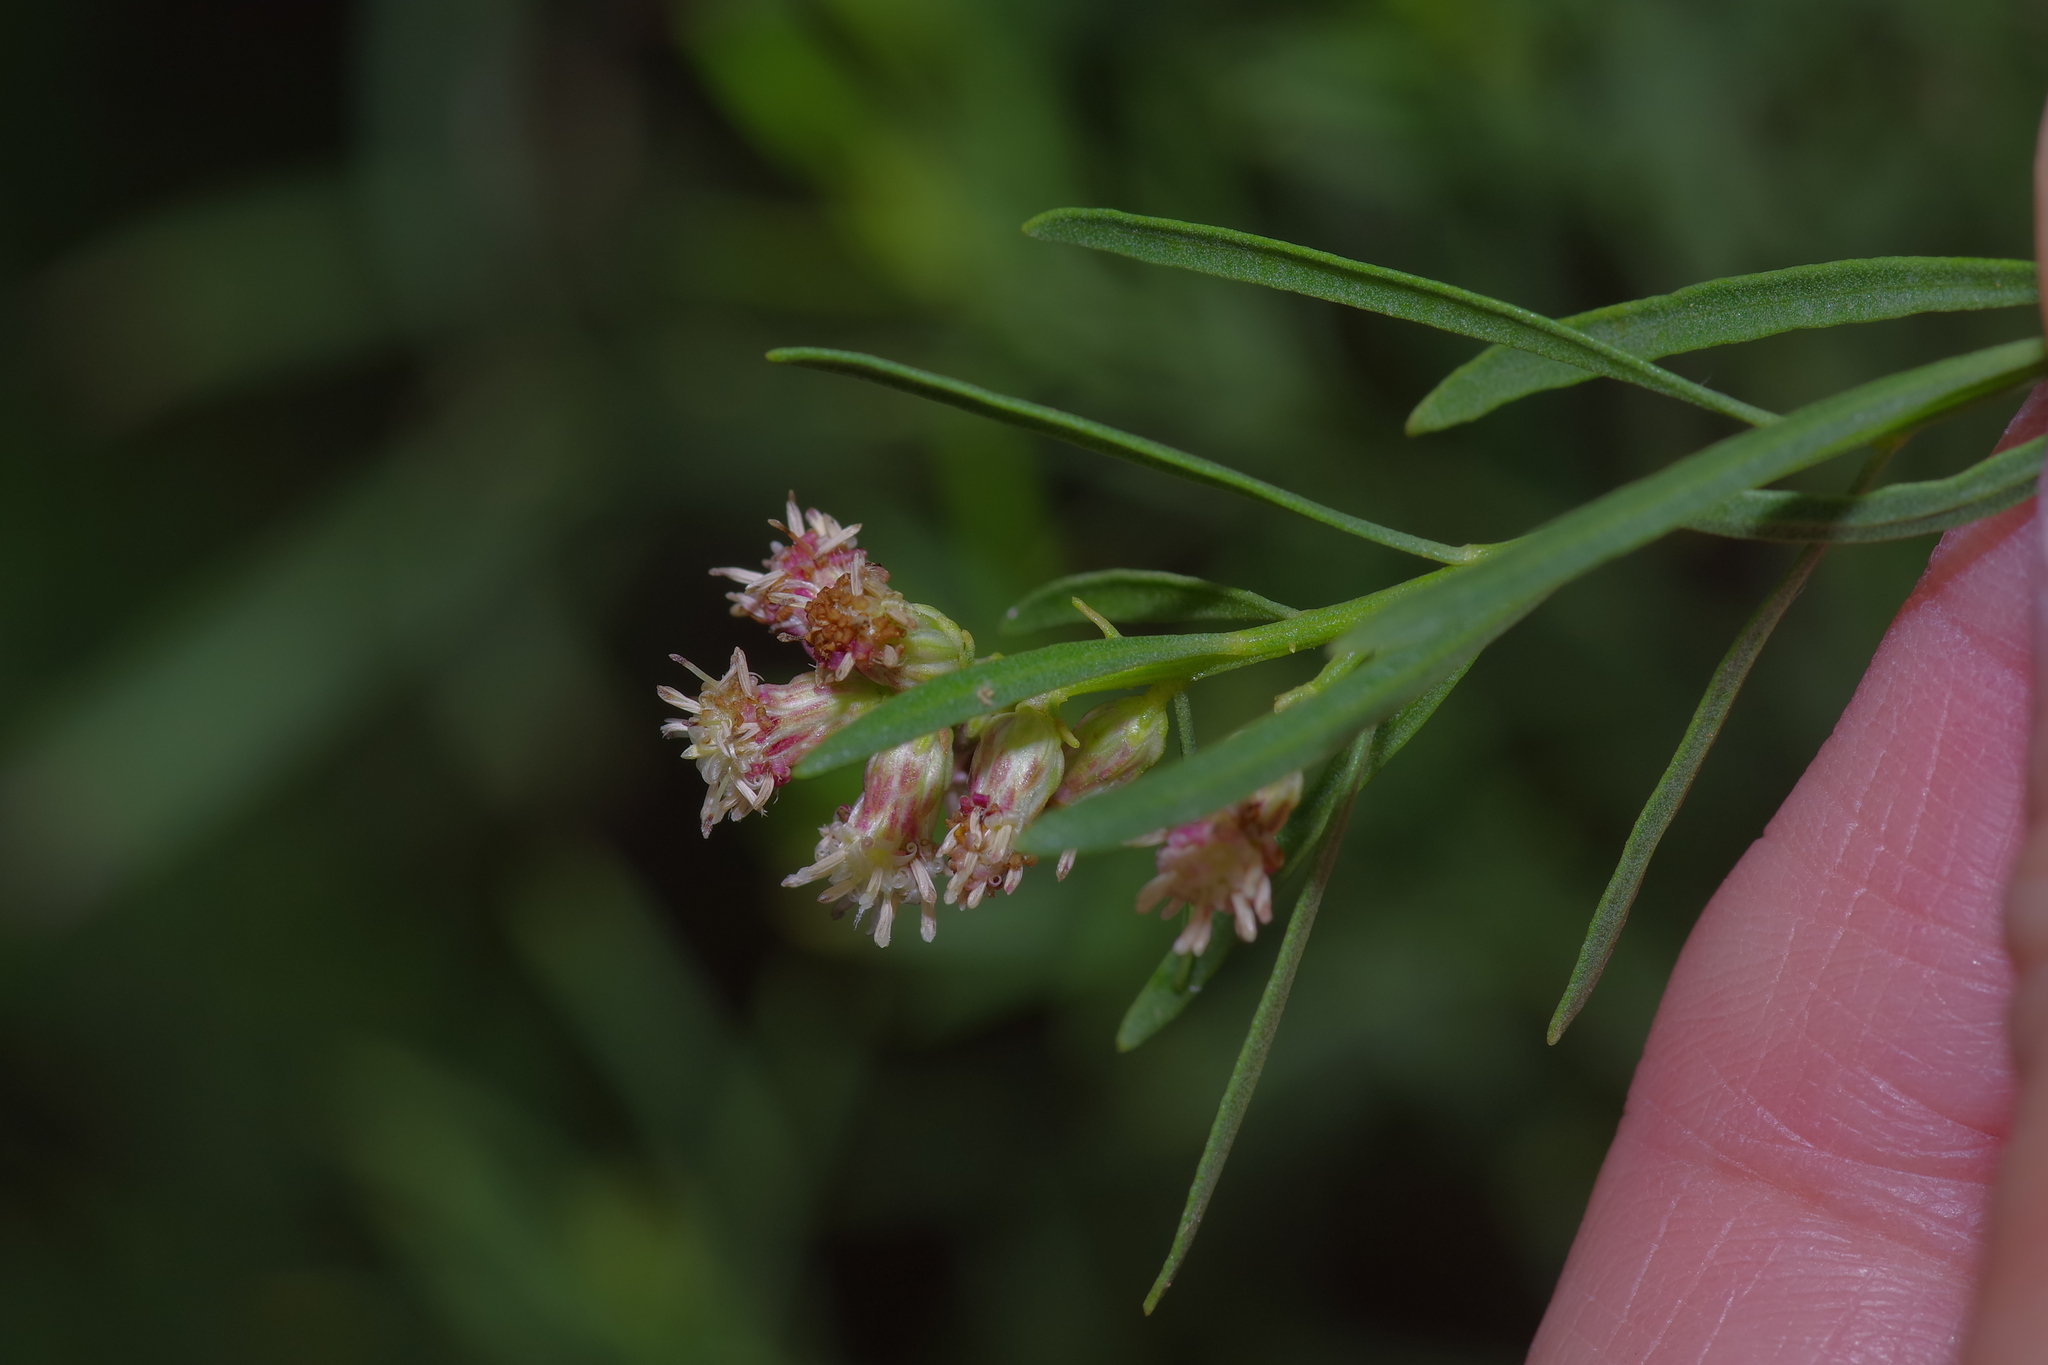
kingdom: Plantae
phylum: Tracheophyta
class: Magnoliopsida
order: Asterales
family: Asteraceae
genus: Baccharis
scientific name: Baccharis neglecta
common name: Roosevelt-weed
